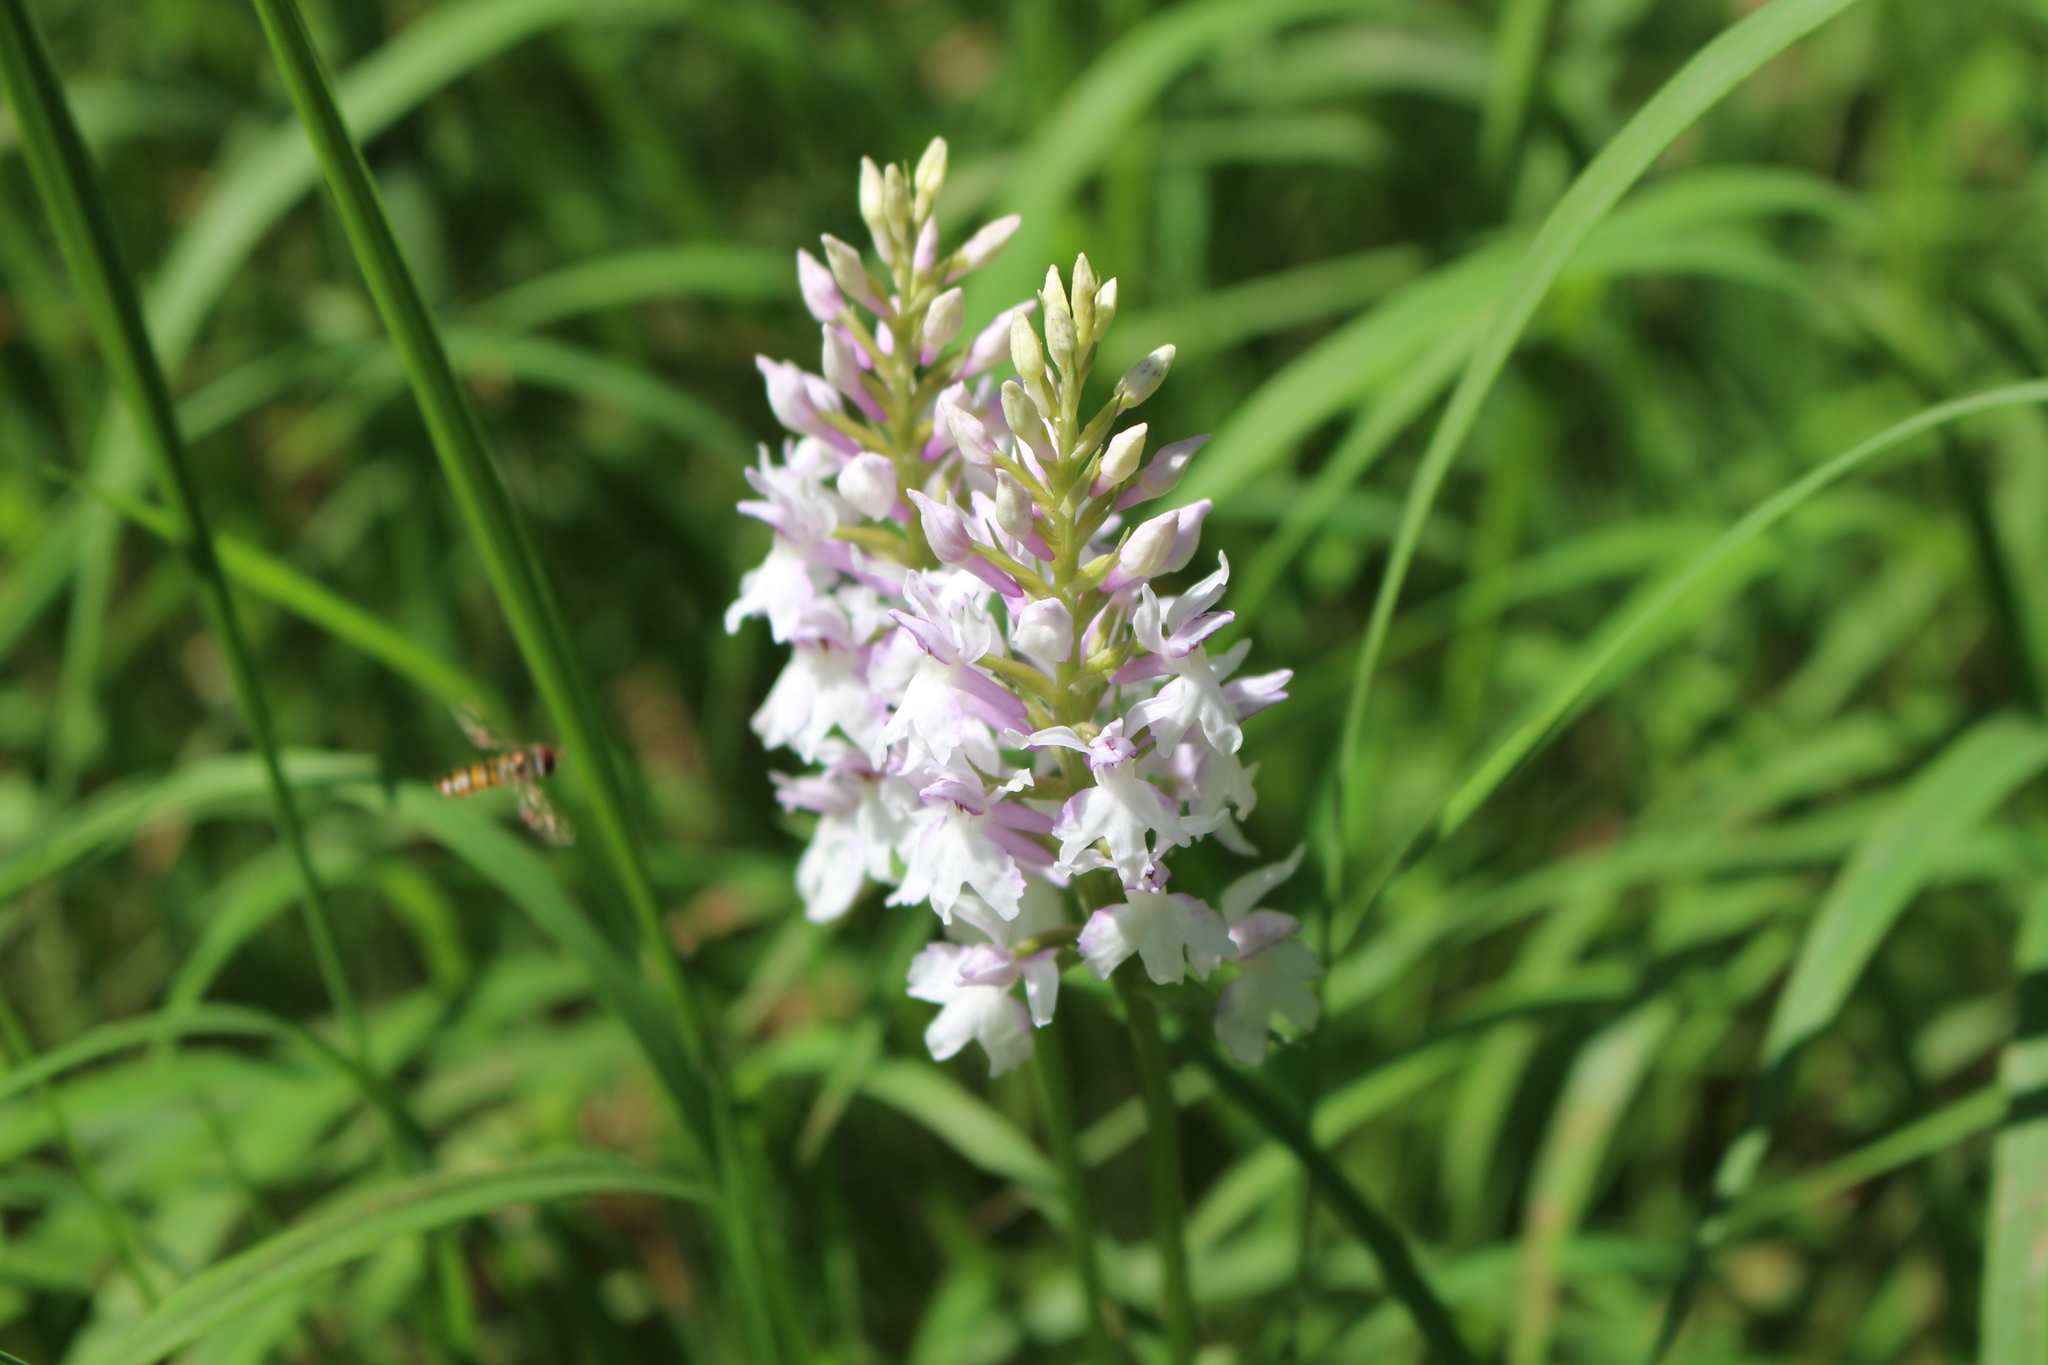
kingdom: Plantae
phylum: Tracheophyta
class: Liliopsida
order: Asparagales
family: Orchidaceae
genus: Dactylorhiza
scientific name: Dactylorhiza maculata
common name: Heath spotted-orchid
